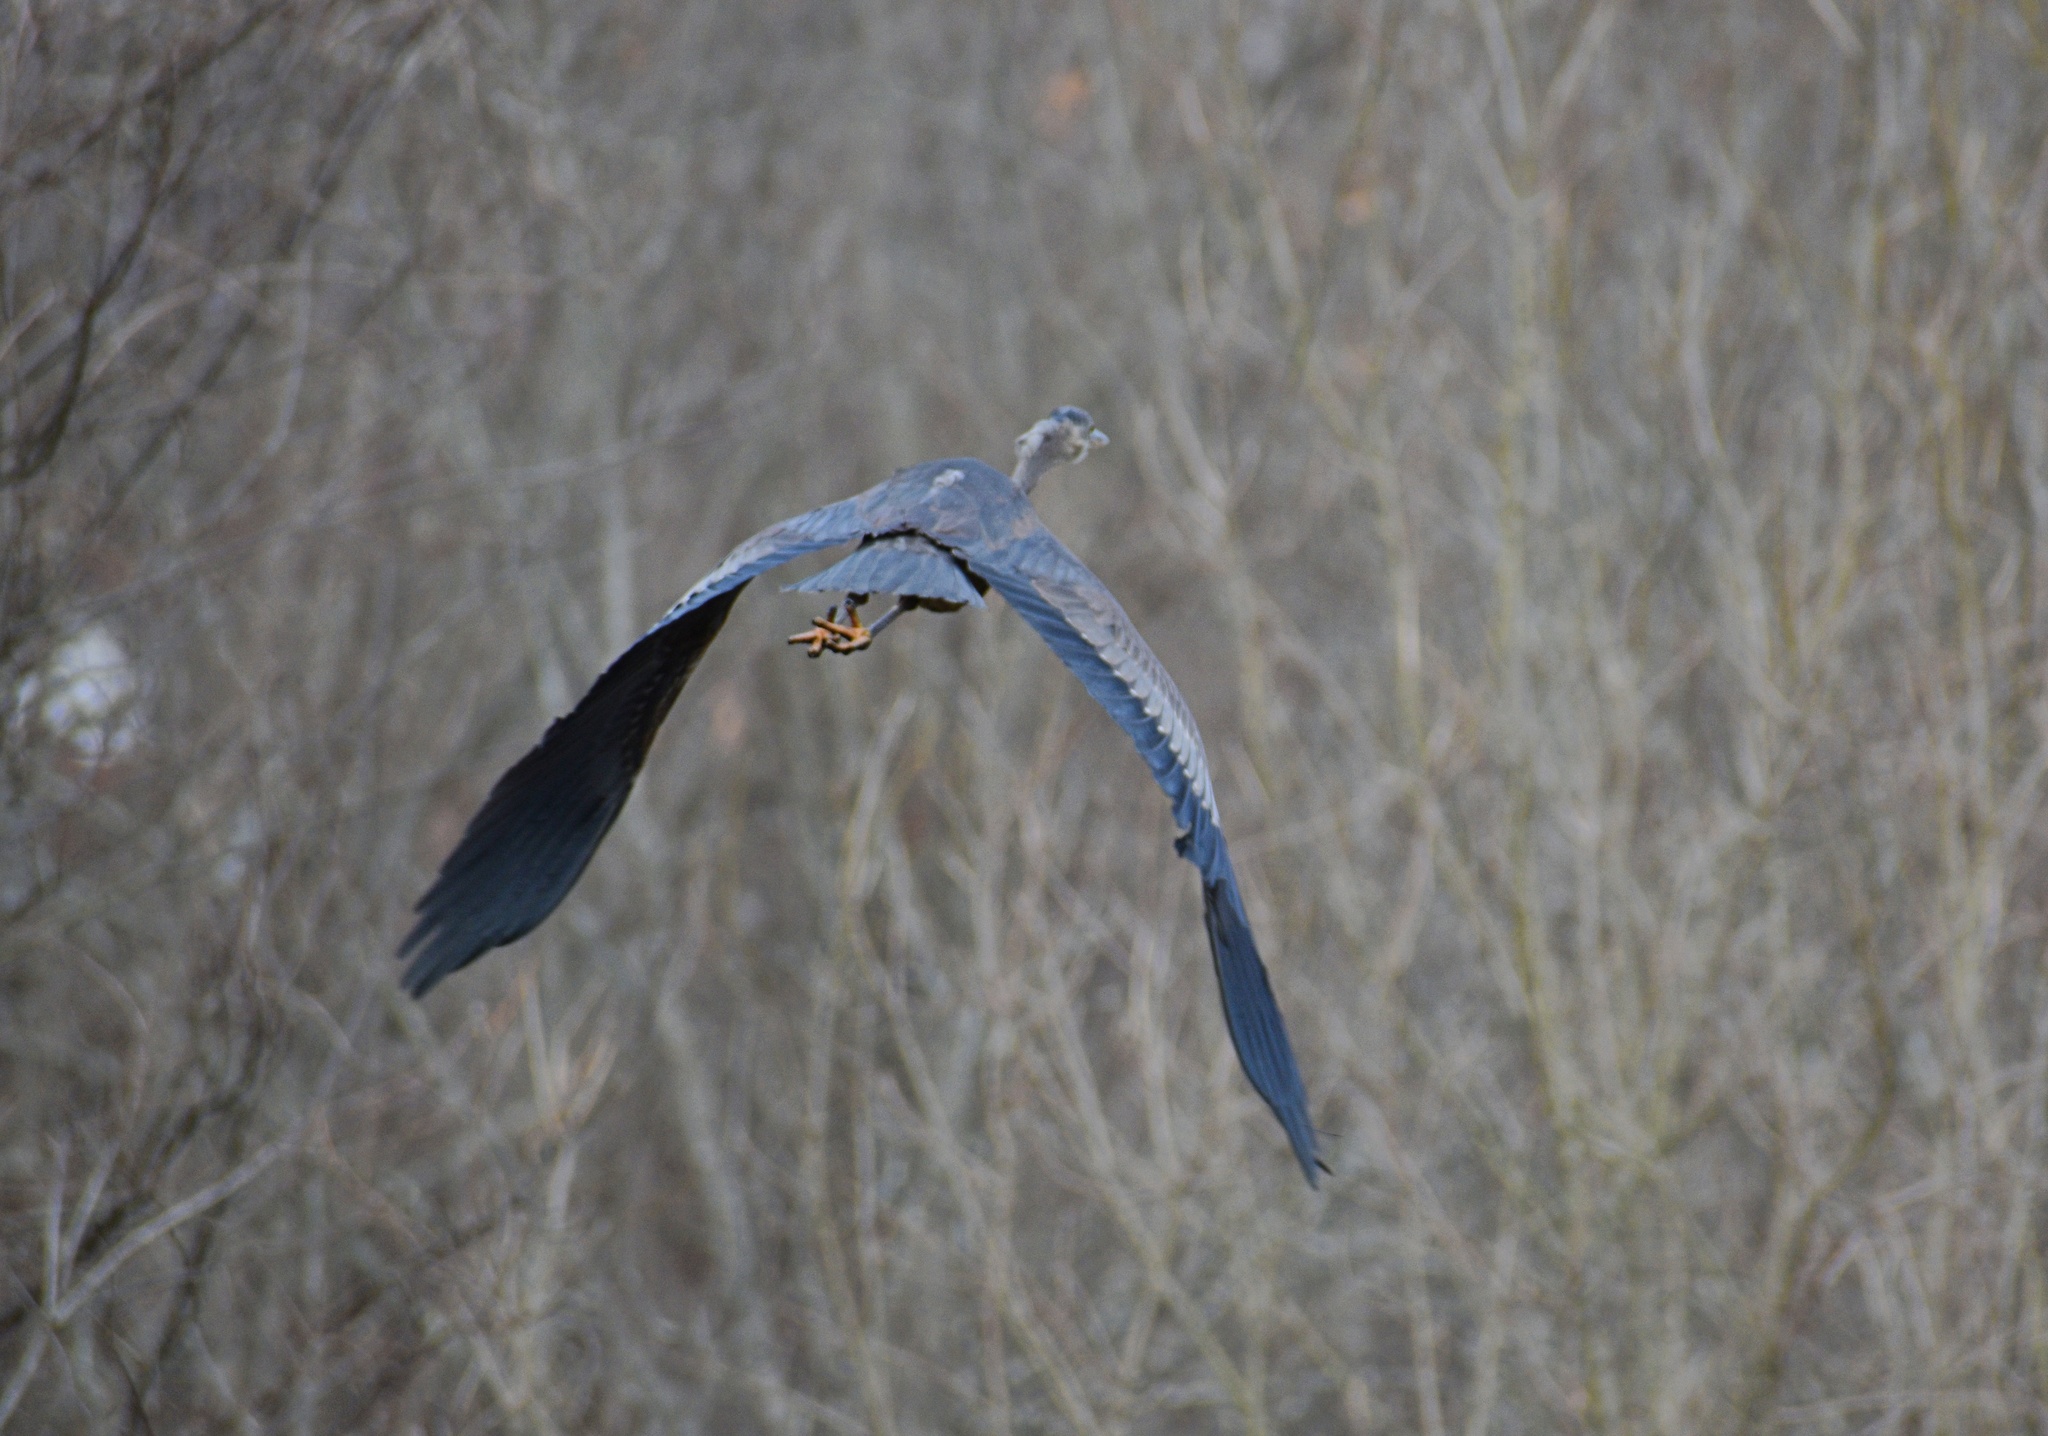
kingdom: Animalia
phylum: Chordata
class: Aves
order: Pelecaniformes
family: Ardeidae
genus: Ardea
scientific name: Ardea herodias
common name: Great blue heron
